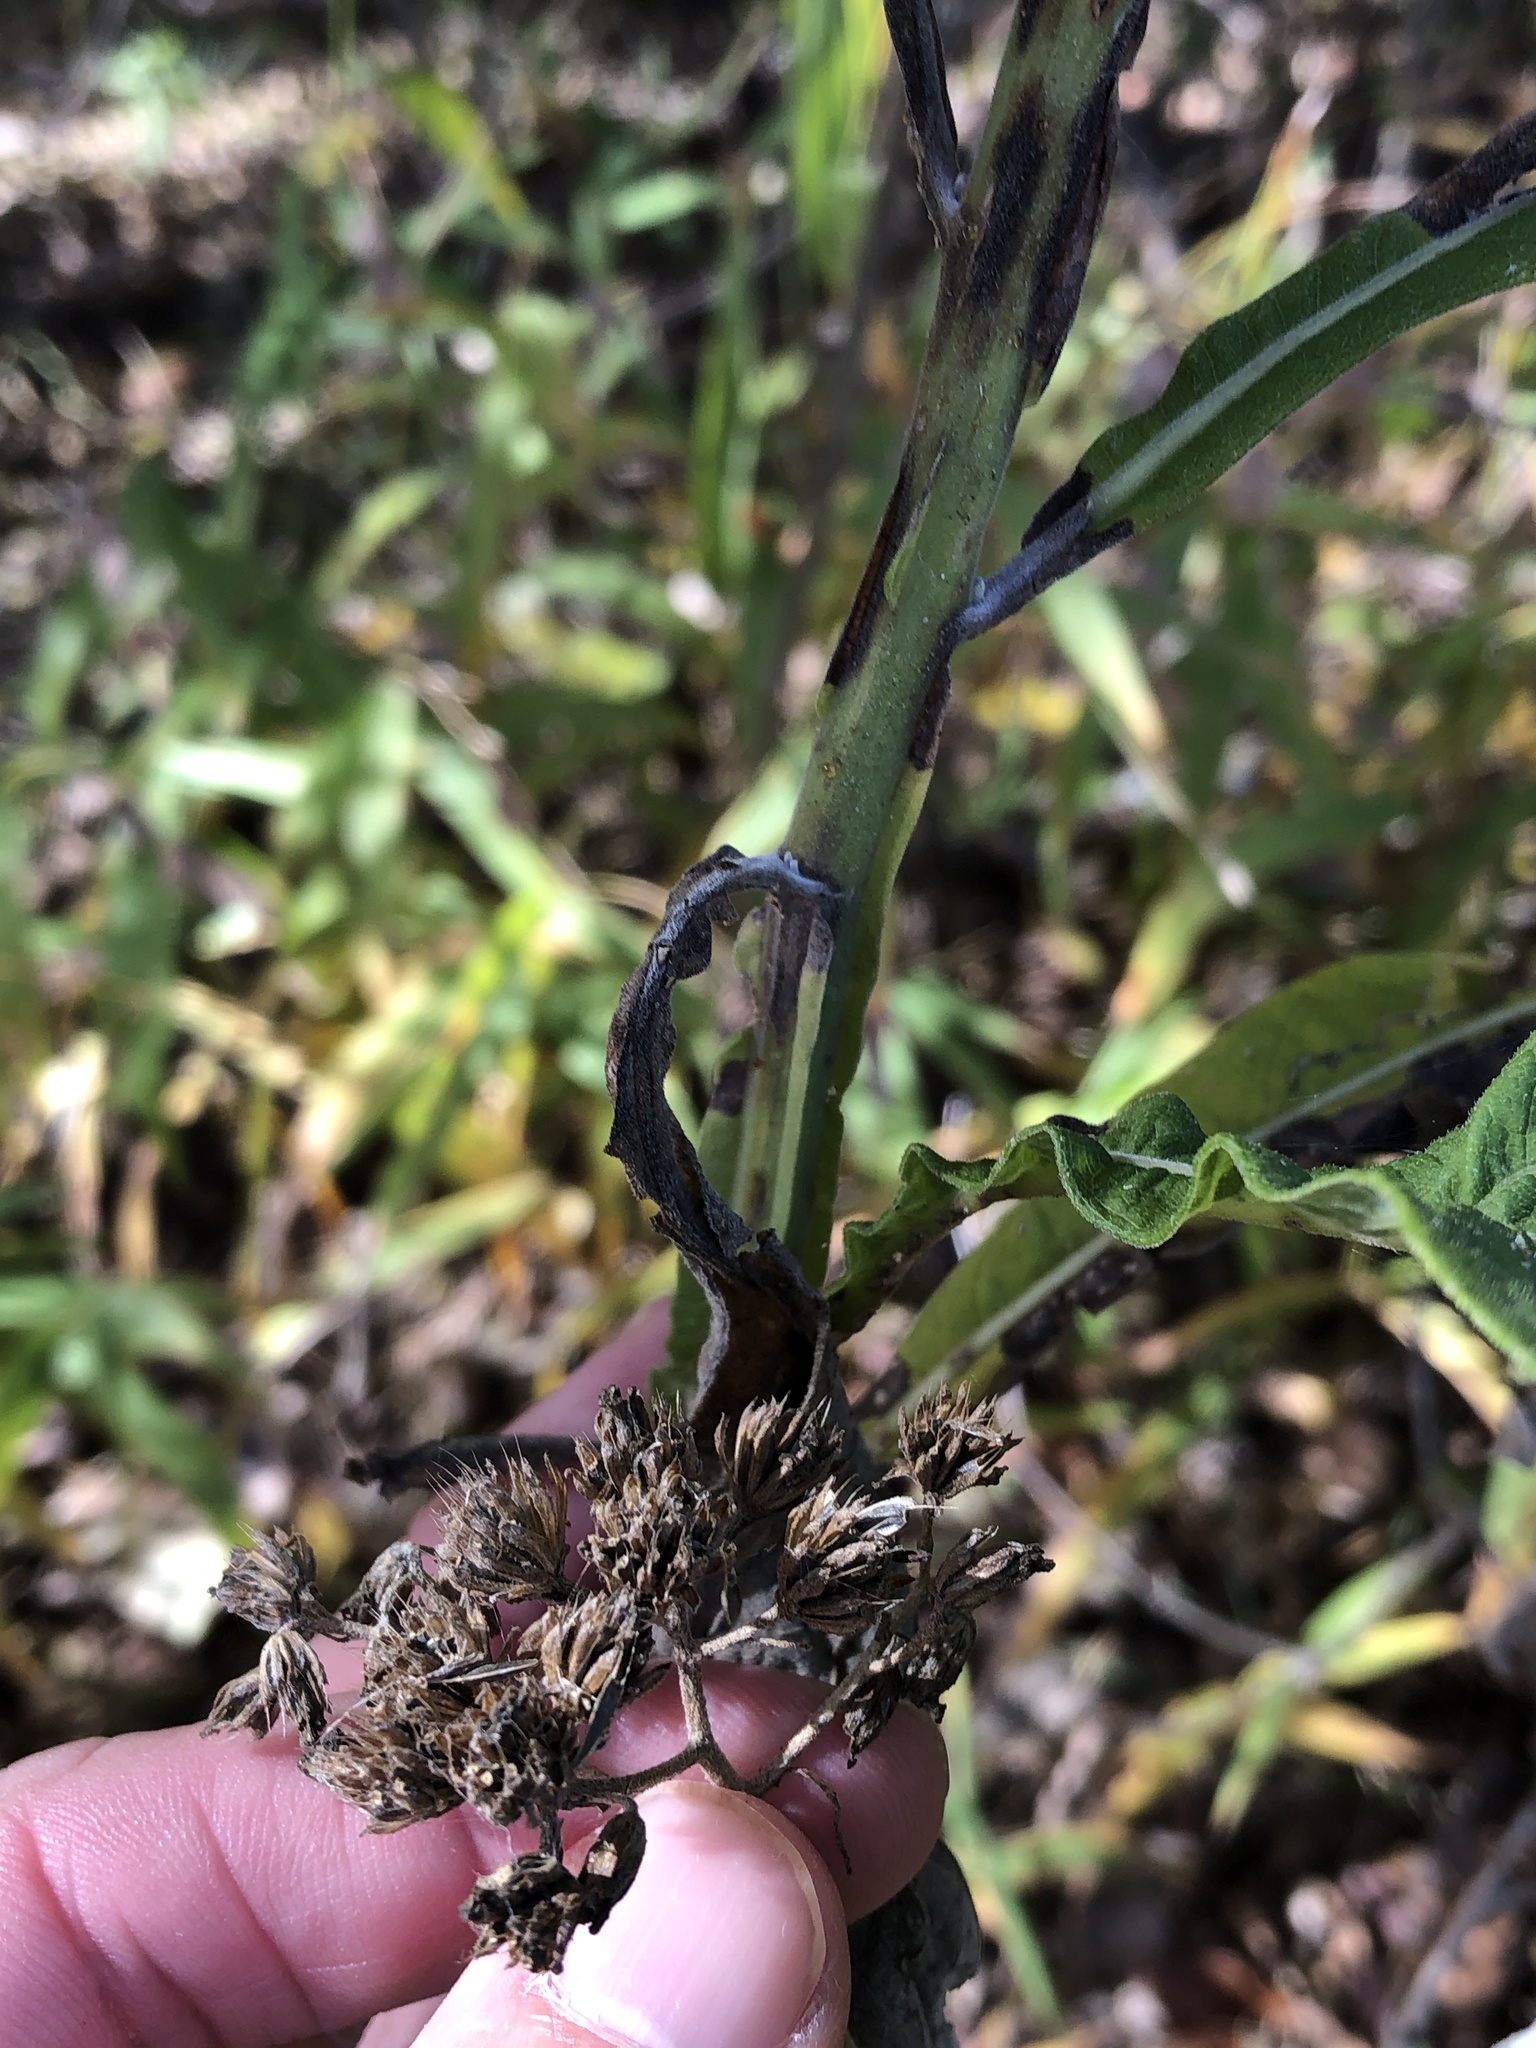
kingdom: Plantae
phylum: Tracheophyta
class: Magnoliopsida
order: Asterales
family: Asteraceae
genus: Verbesina
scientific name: Verbesina virginica
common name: Frostweed
